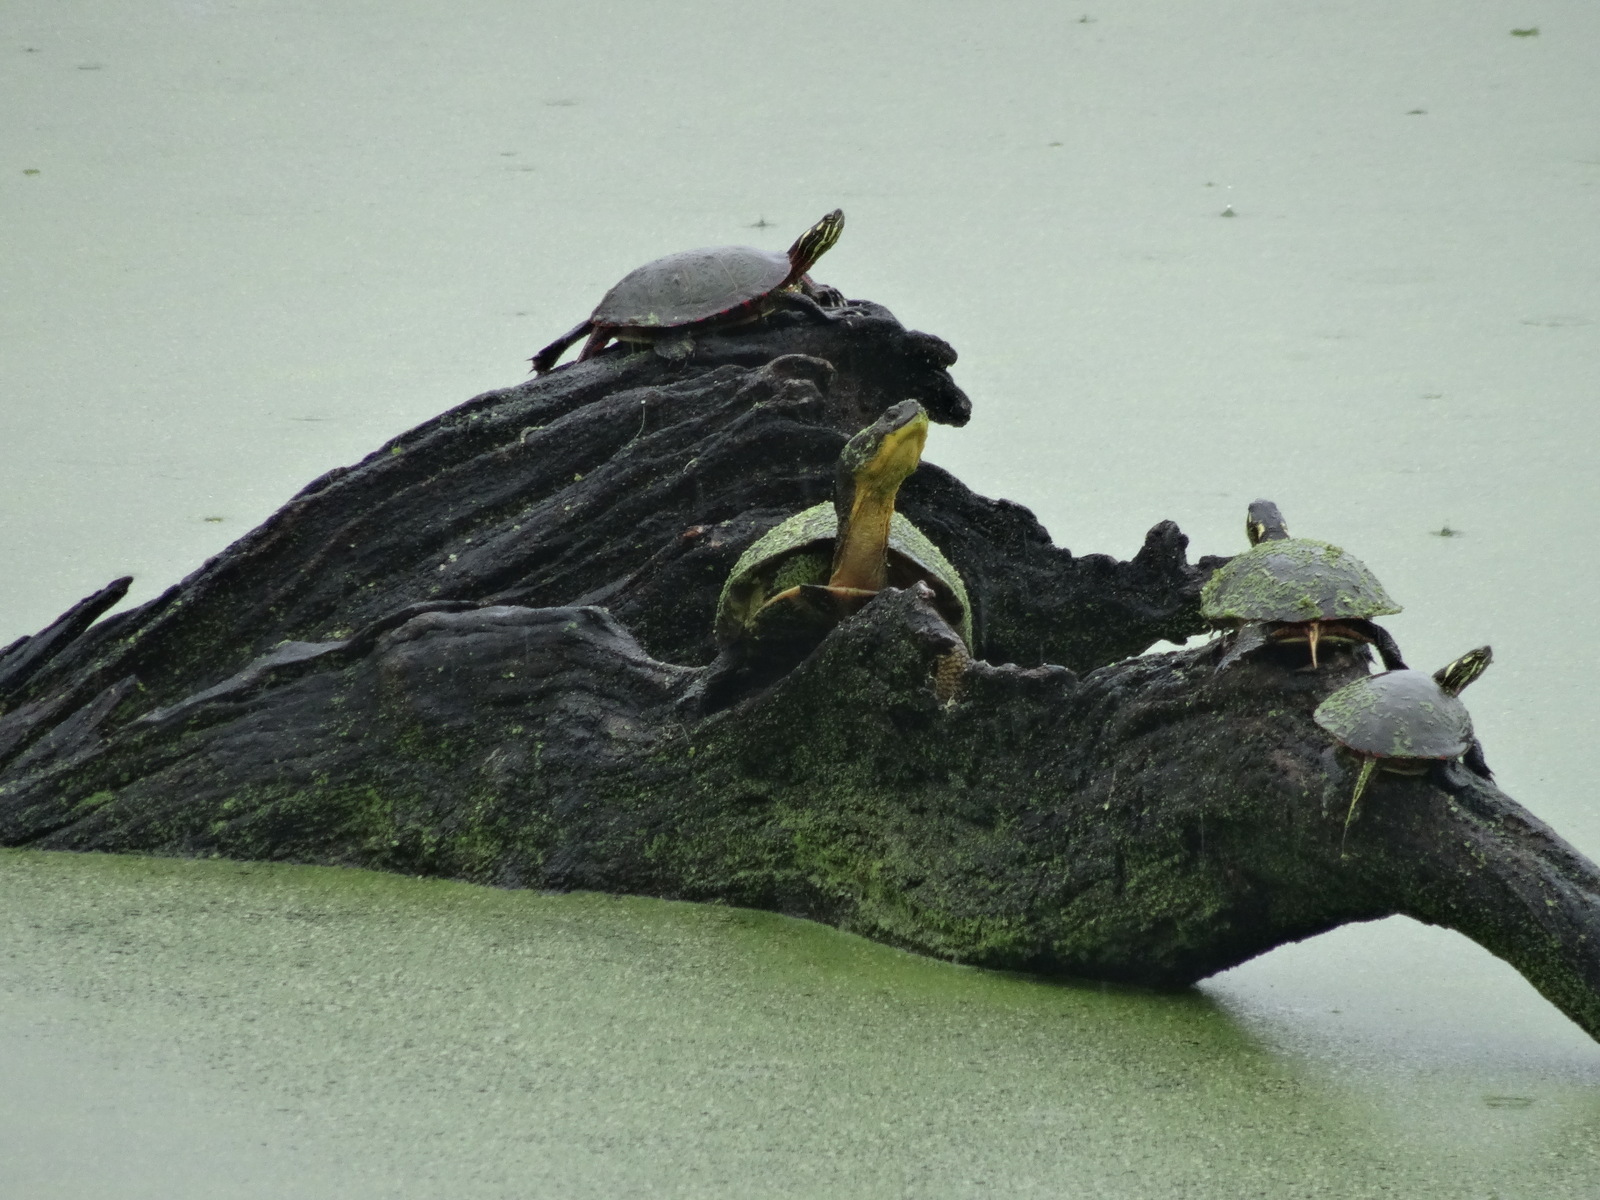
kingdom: Animalia
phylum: Chordata
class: Testudines
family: Emydidae
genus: Emys
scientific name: Emys blandingii
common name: Blanding's turtle
